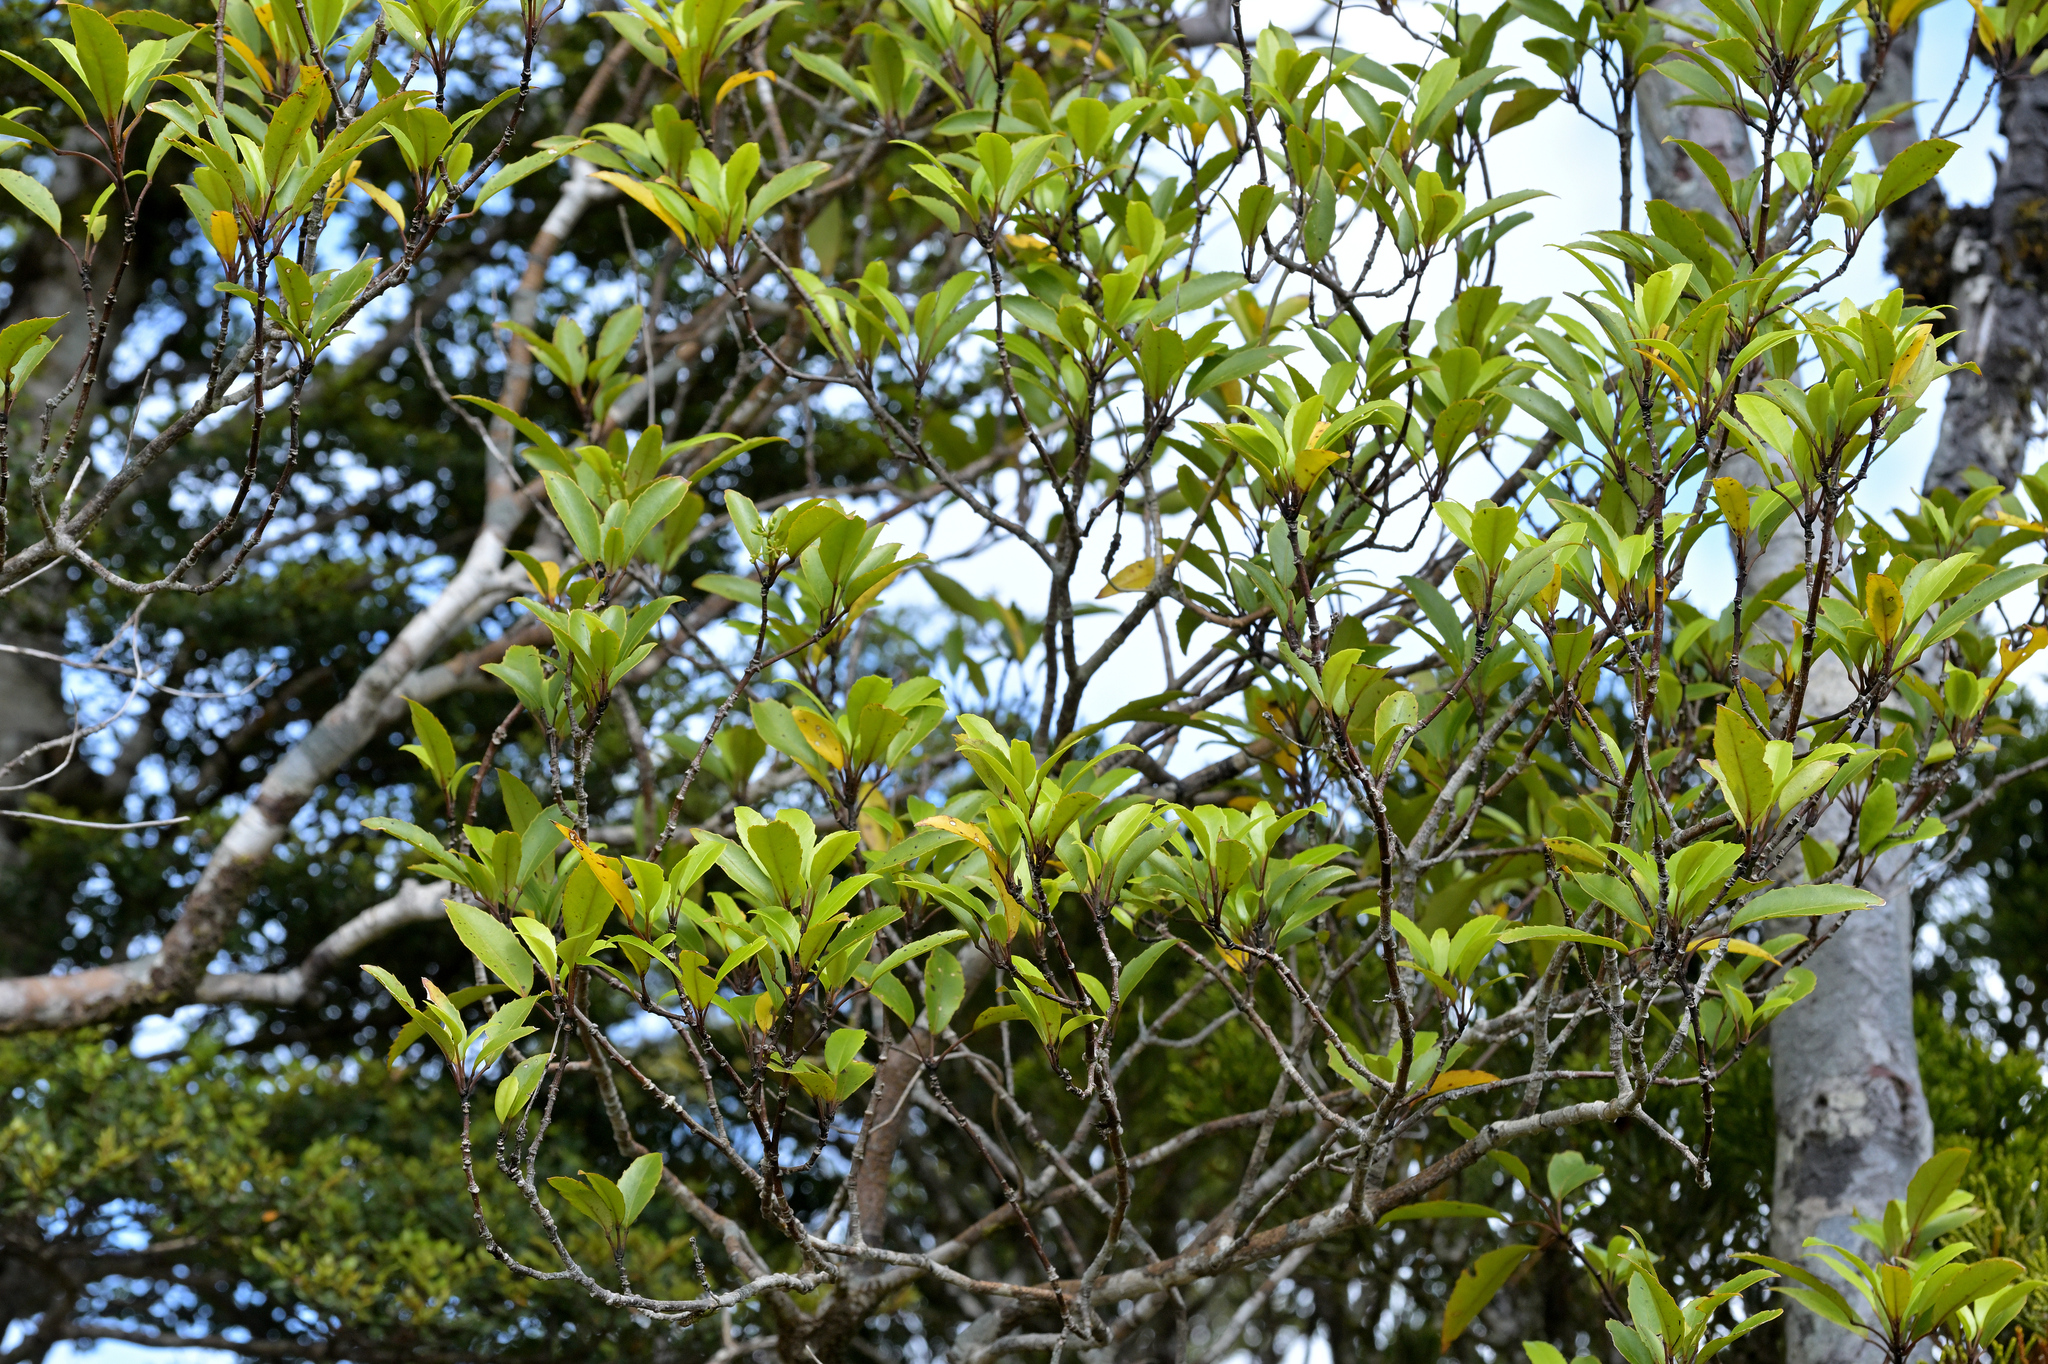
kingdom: Plantae
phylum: Tracheophyta
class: Magnoliopsida
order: Paracryphiales
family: Paracryphiaceae
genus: Quintinia
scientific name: Quintinia serrata
